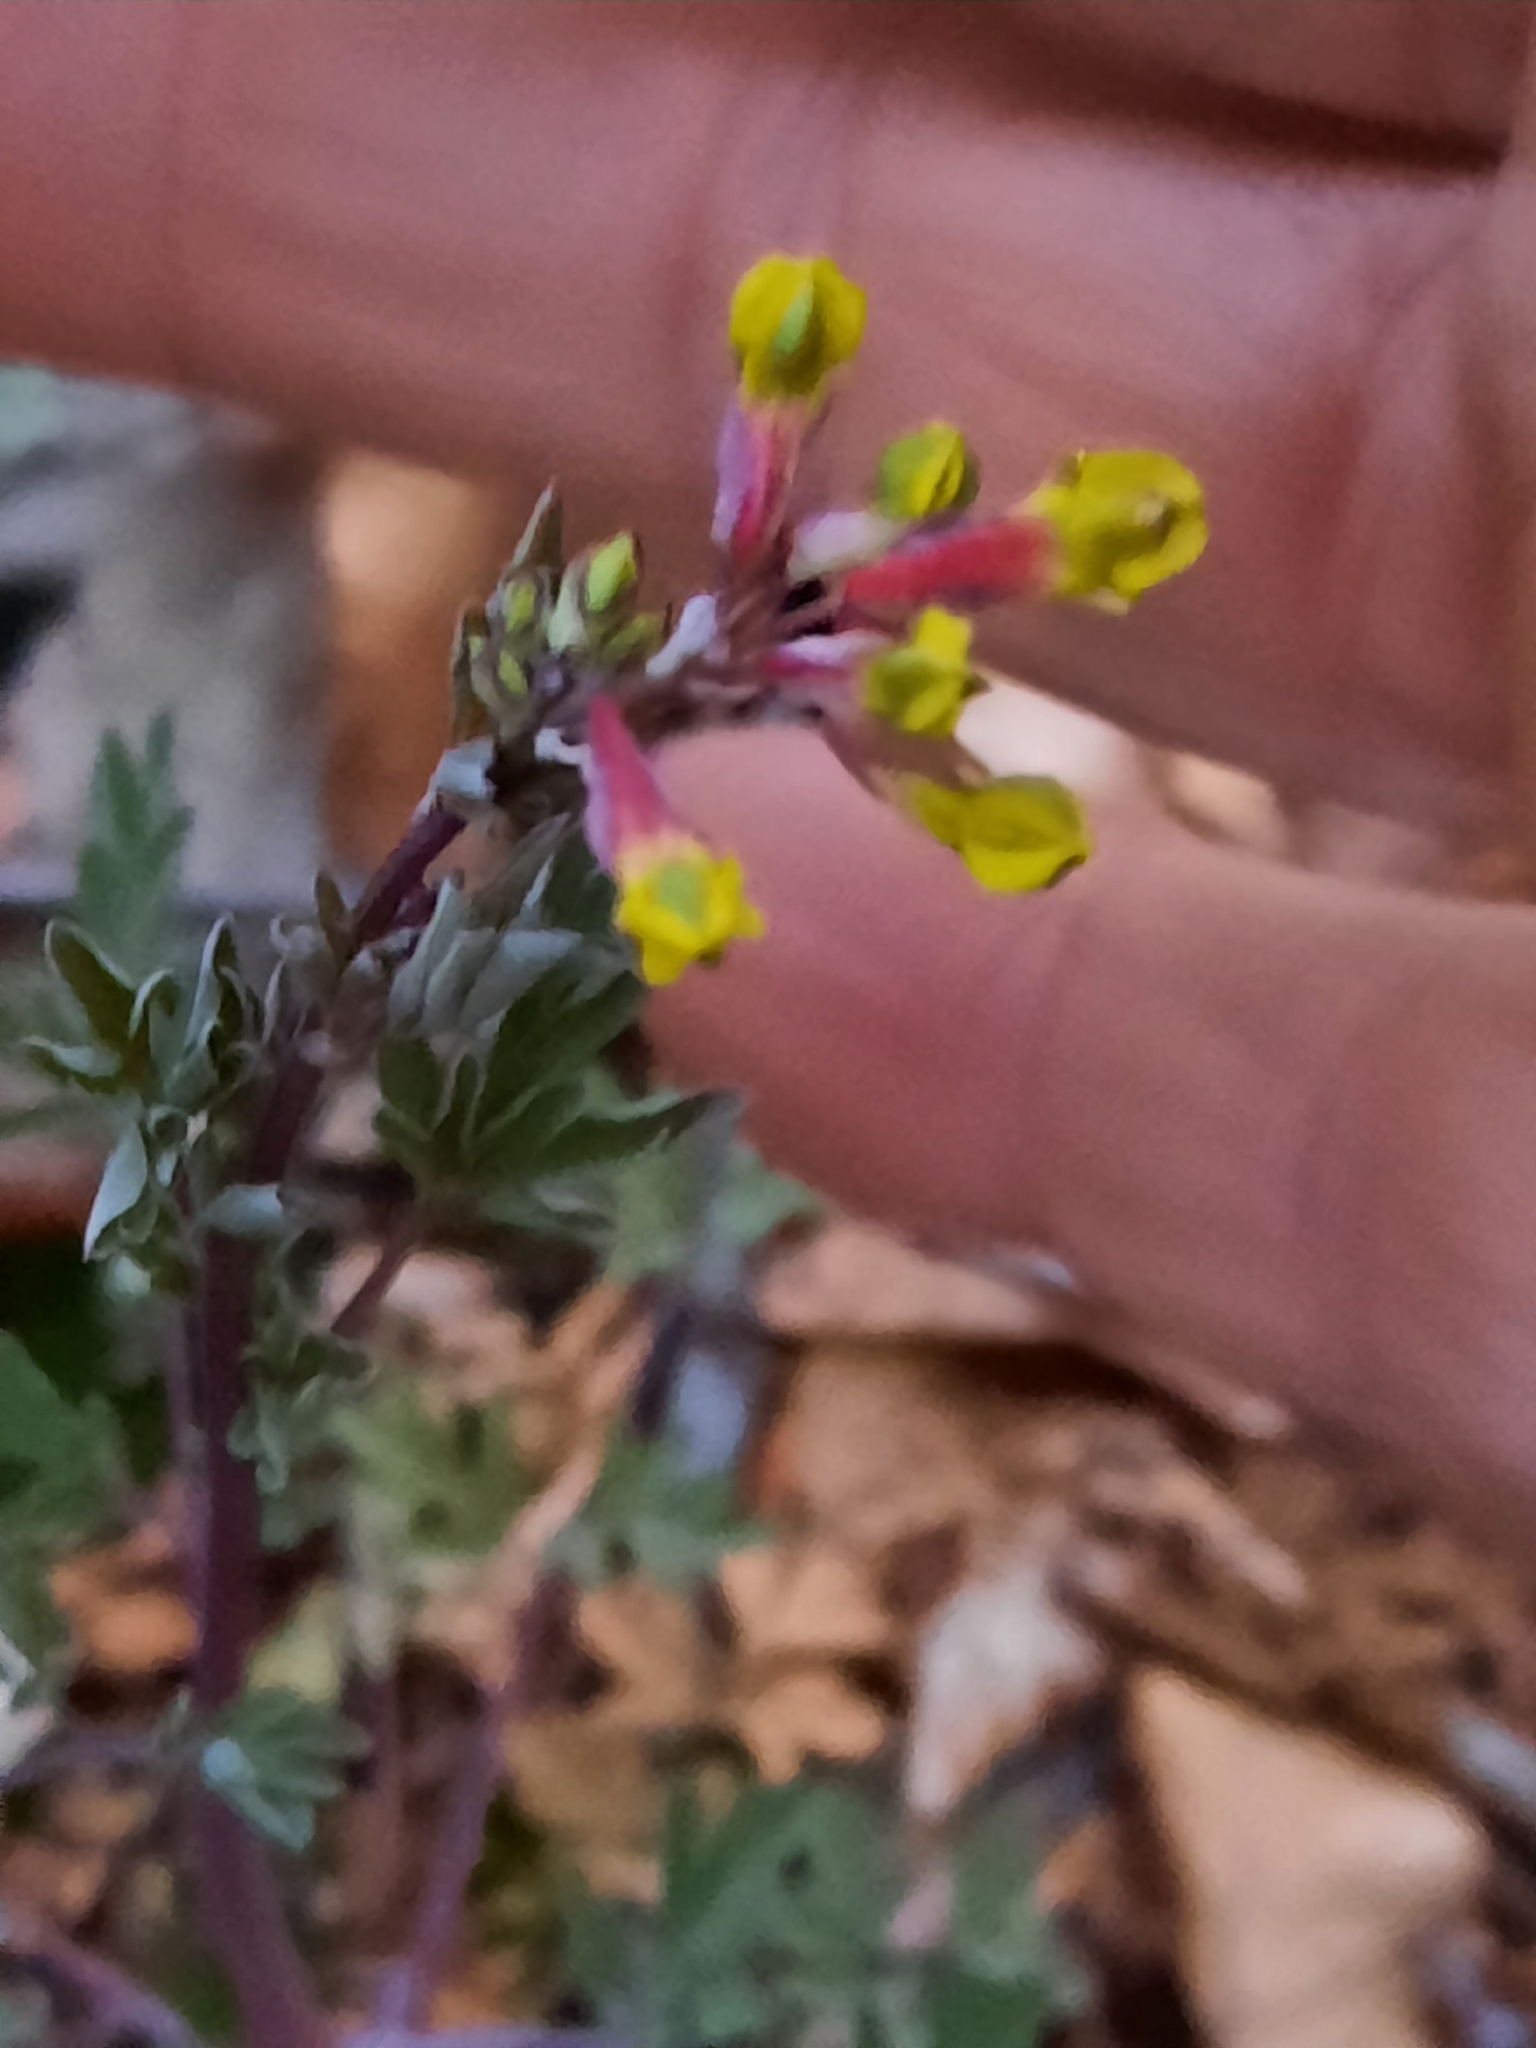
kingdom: Plantae
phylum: Tracheophyta
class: Magnoliopsida
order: Ranunculales
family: Papaveraceae
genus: Capnoides
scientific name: Capnoides sempervirens
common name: Rock harlequin
